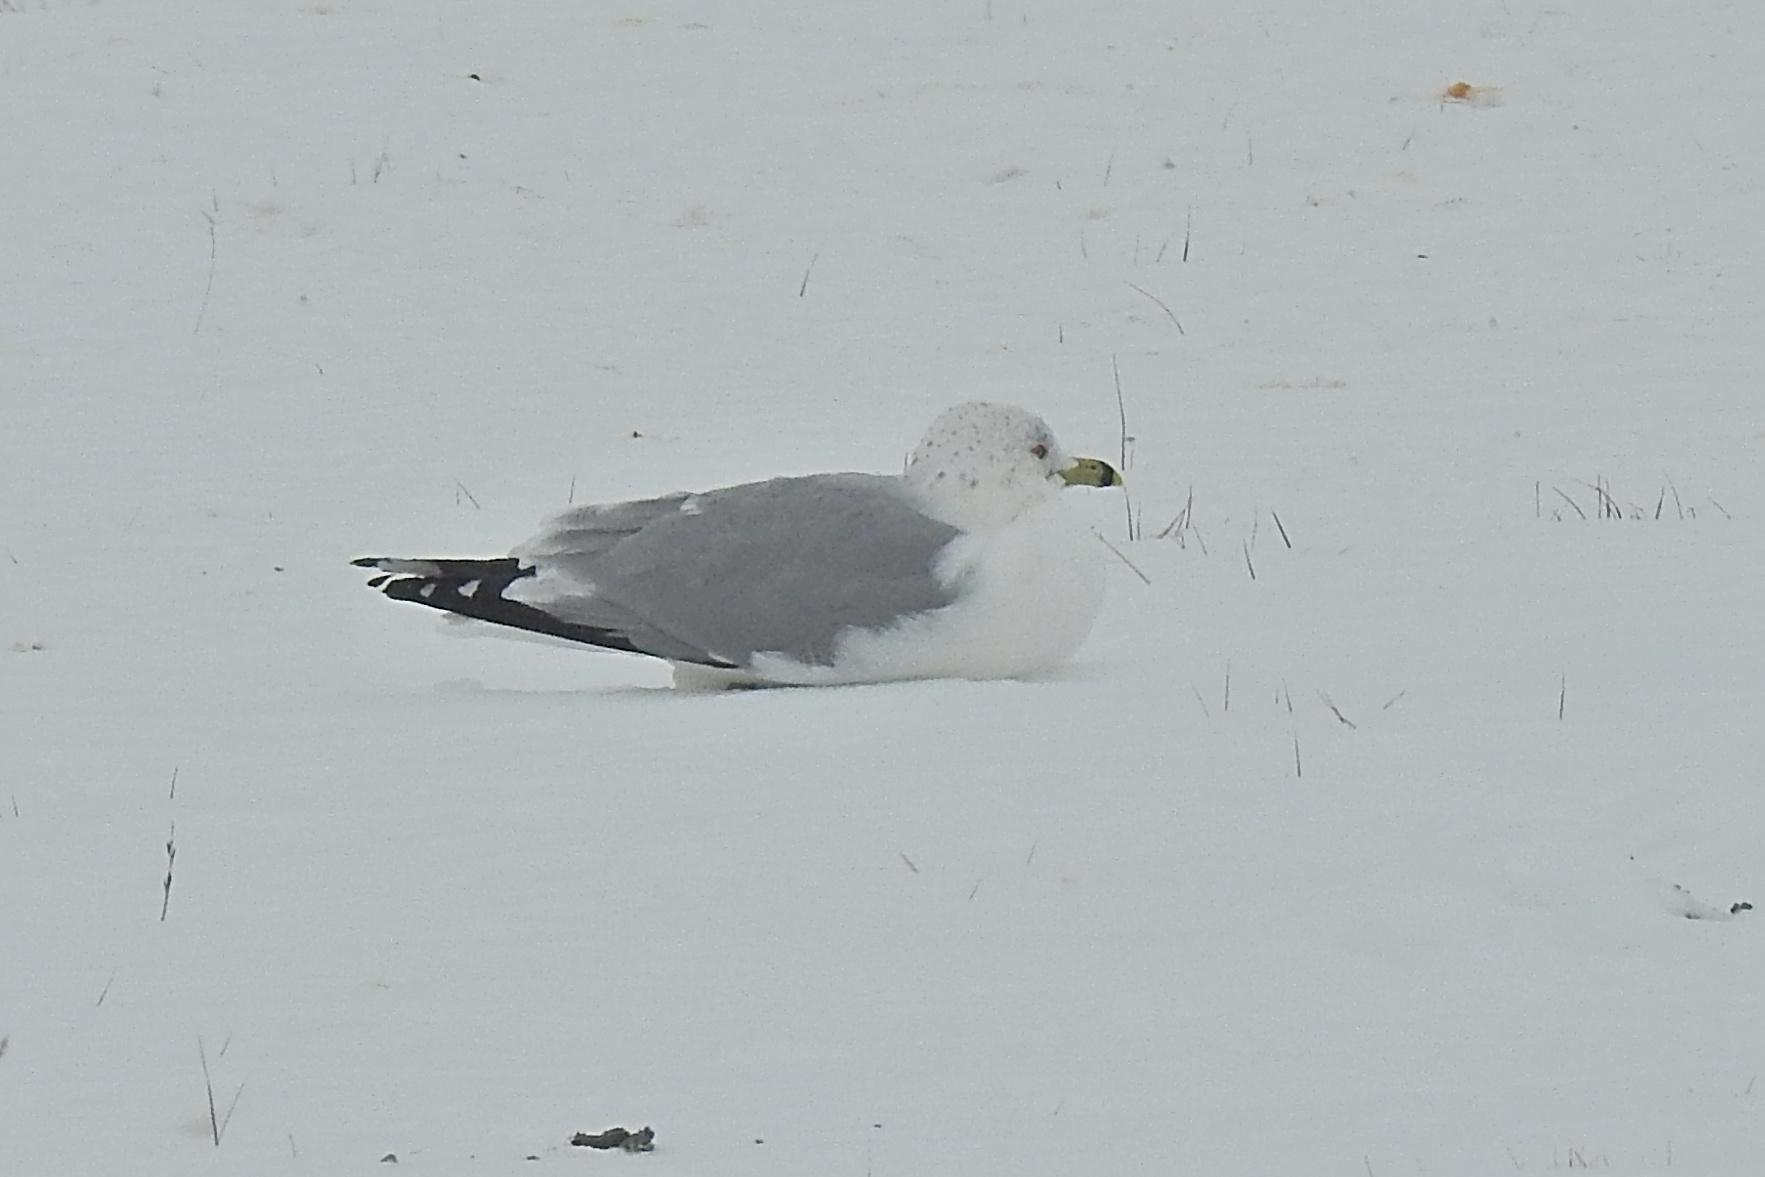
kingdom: Animalia
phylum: Chordata
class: Aves
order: Charadriiformes
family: Laridae
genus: Larus
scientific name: Larus delawarensis
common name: Ring-billed gull
